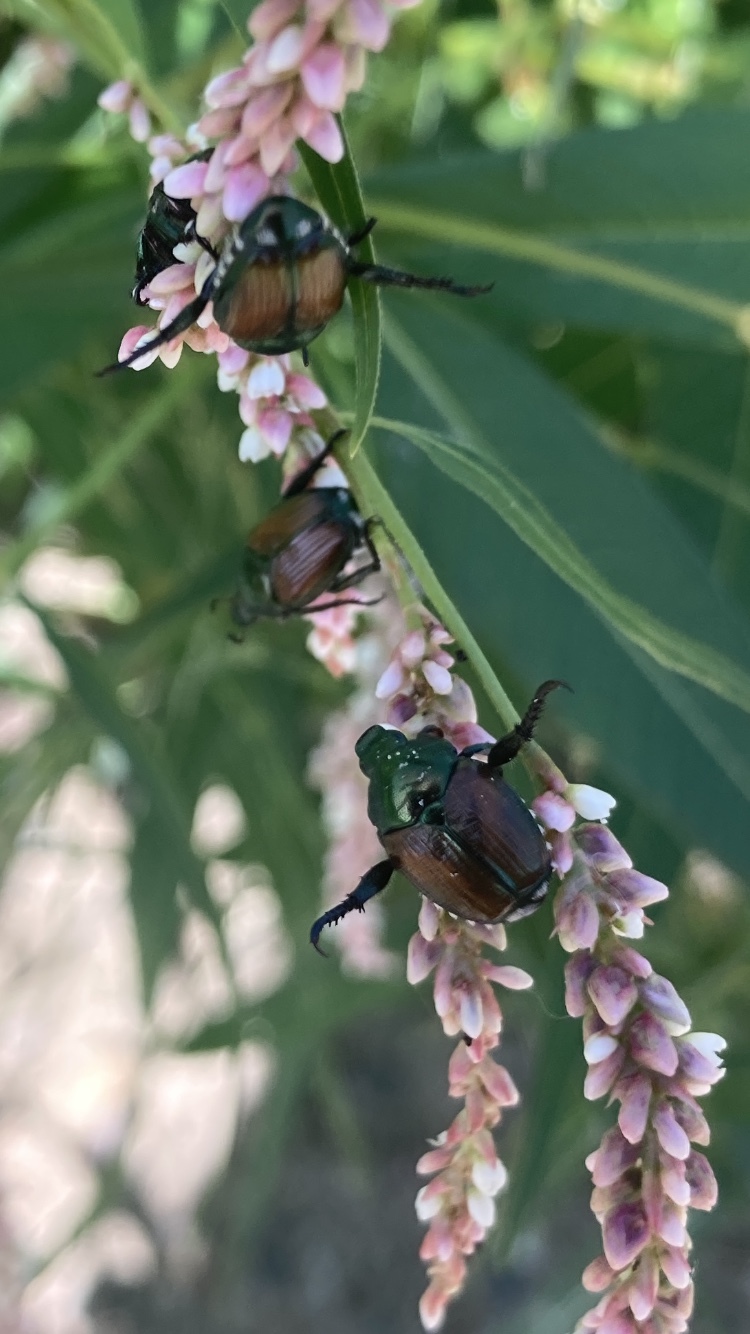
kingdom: Animalia
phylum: Arthropoda
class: Insecta
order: Coleoptera
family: Scarabaeidae
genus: Popillia
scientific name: Popillia japonica
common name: Japanese beetle
